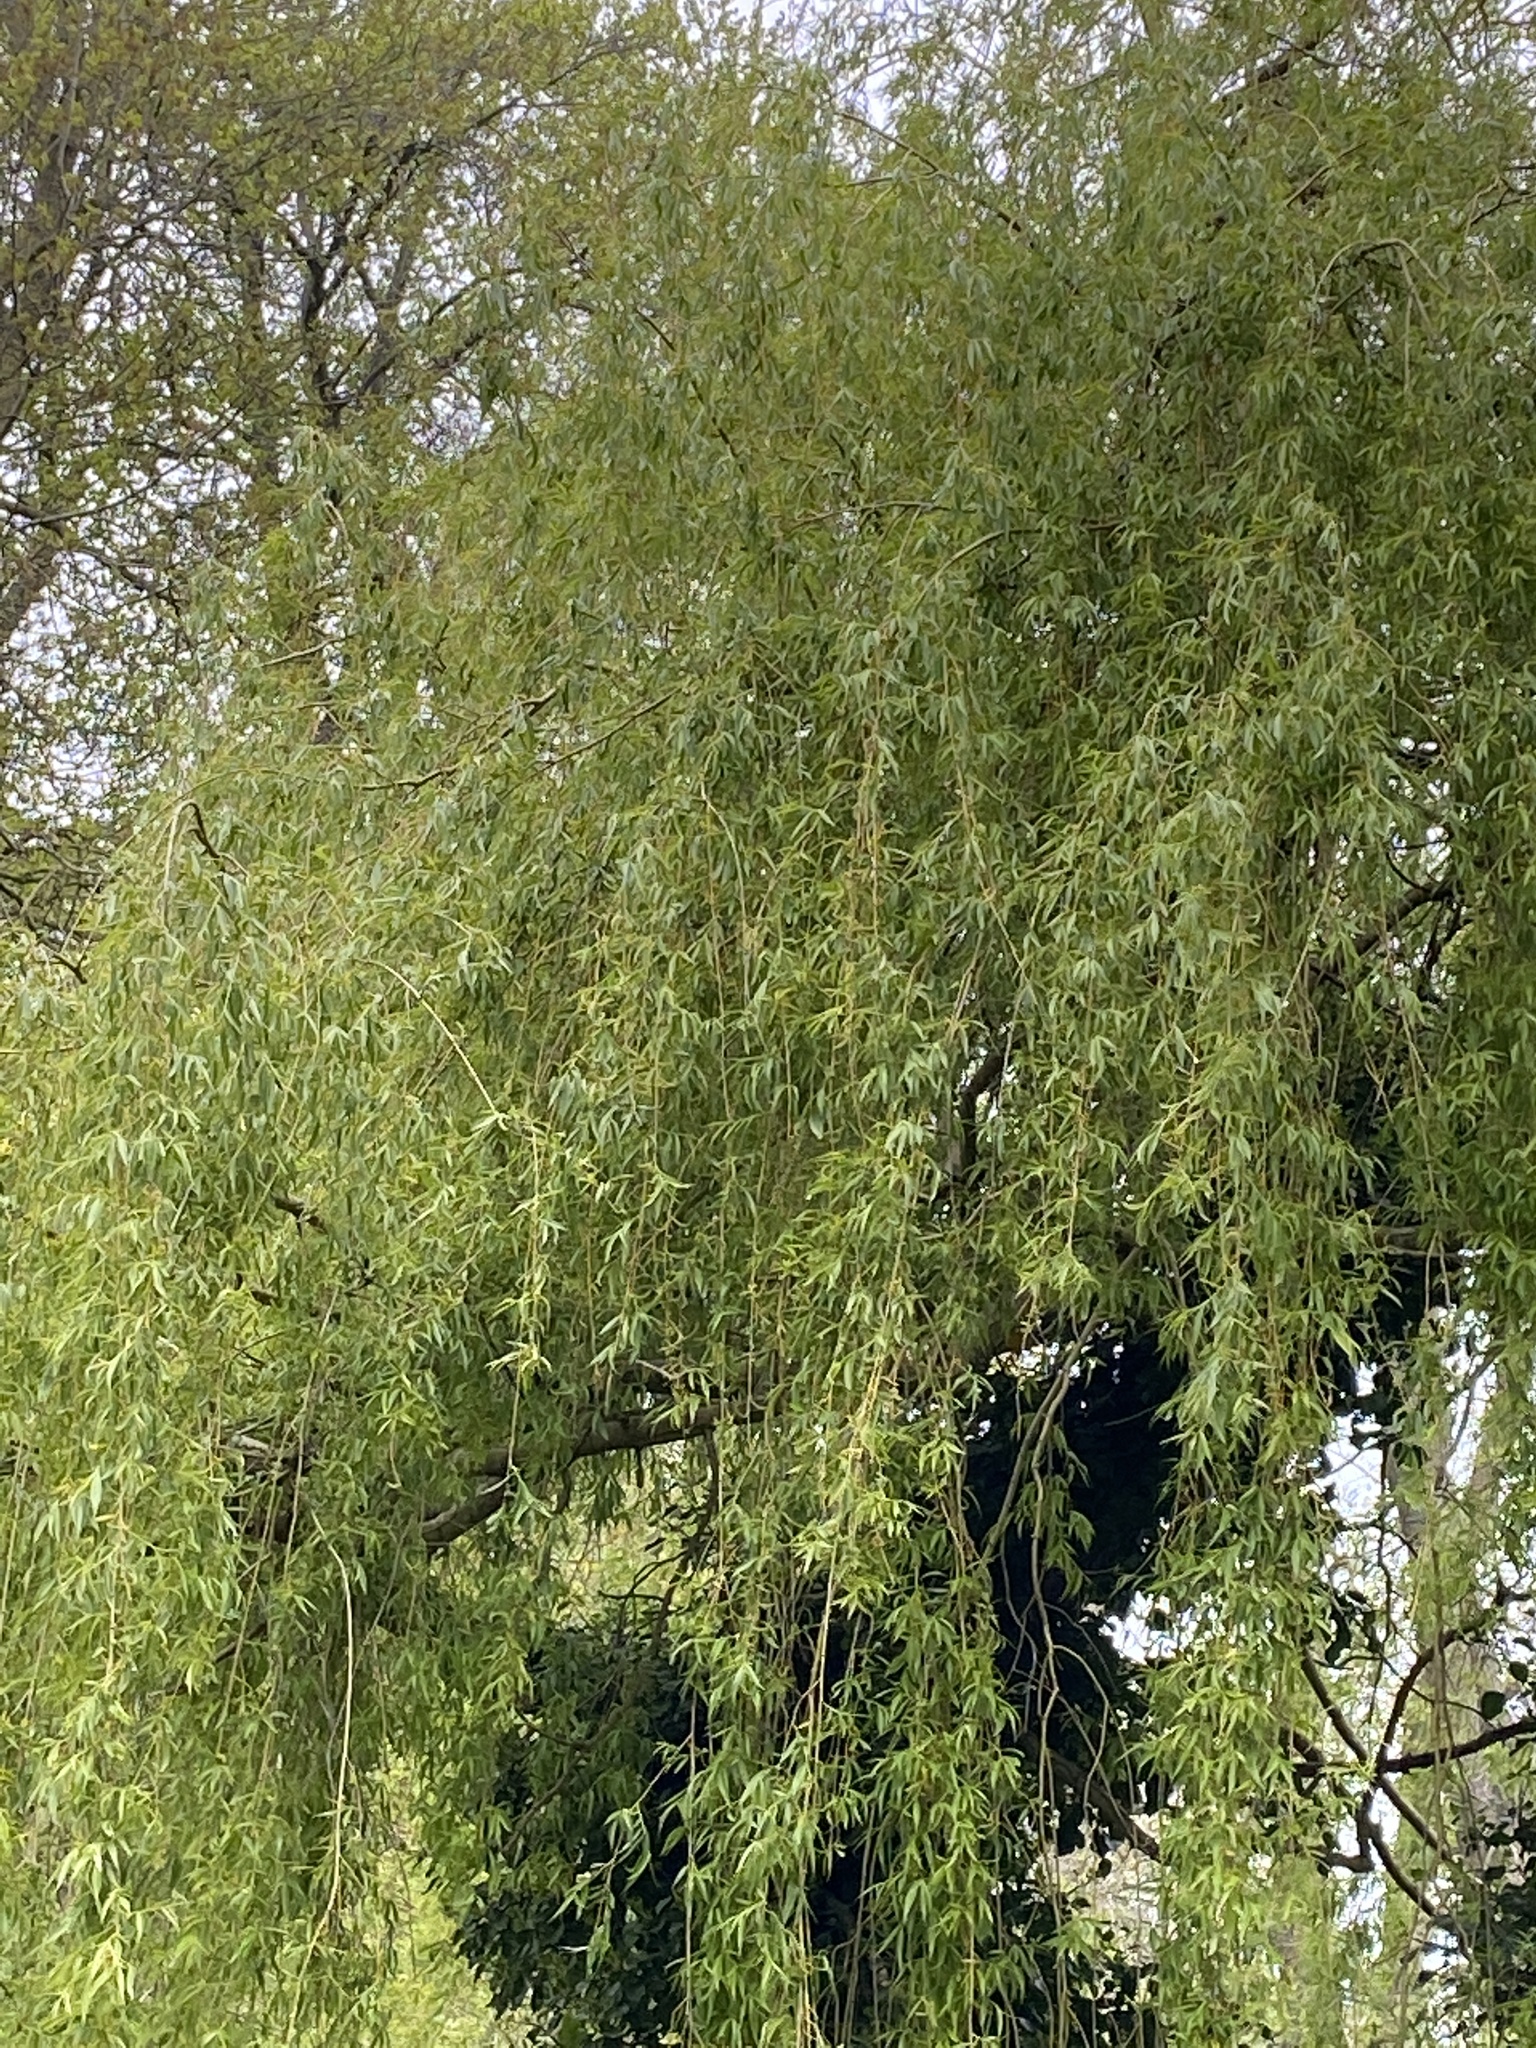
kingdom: Plantae
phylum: Tracheophyta
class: Magnoliopsida
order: Malpighiales
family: Salicaceae
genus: Salix
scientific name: Salix pendulina
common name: Wisconsin weeping willow
